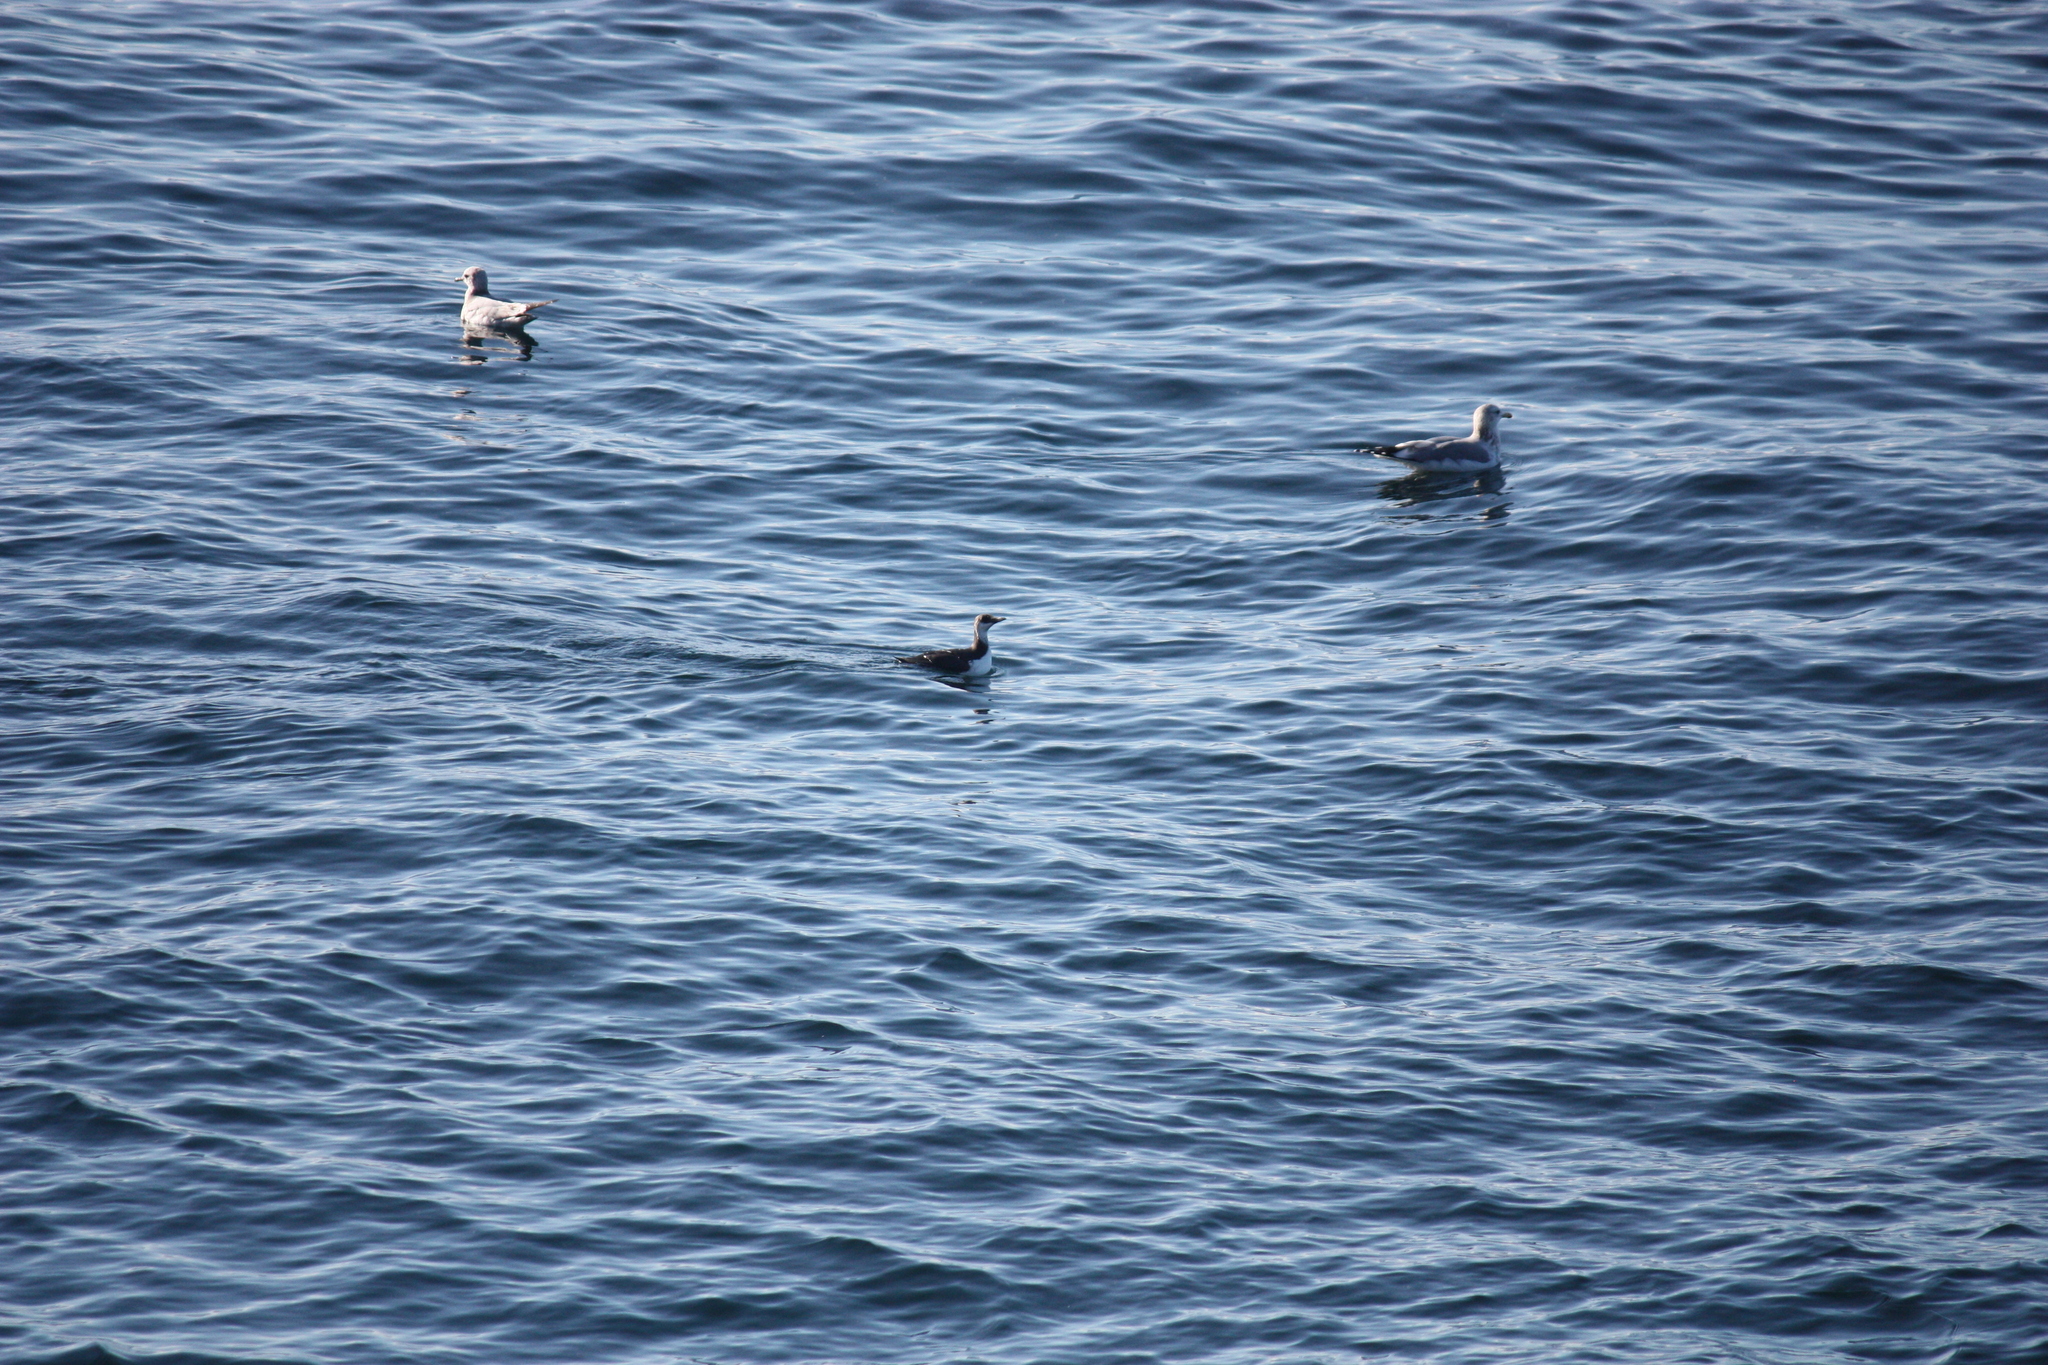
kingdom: Animalia
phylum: Chordata
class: Aves
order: Charadriiformes
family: Alcidae
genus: Uria
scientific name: Uria aalge
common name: Common murre
